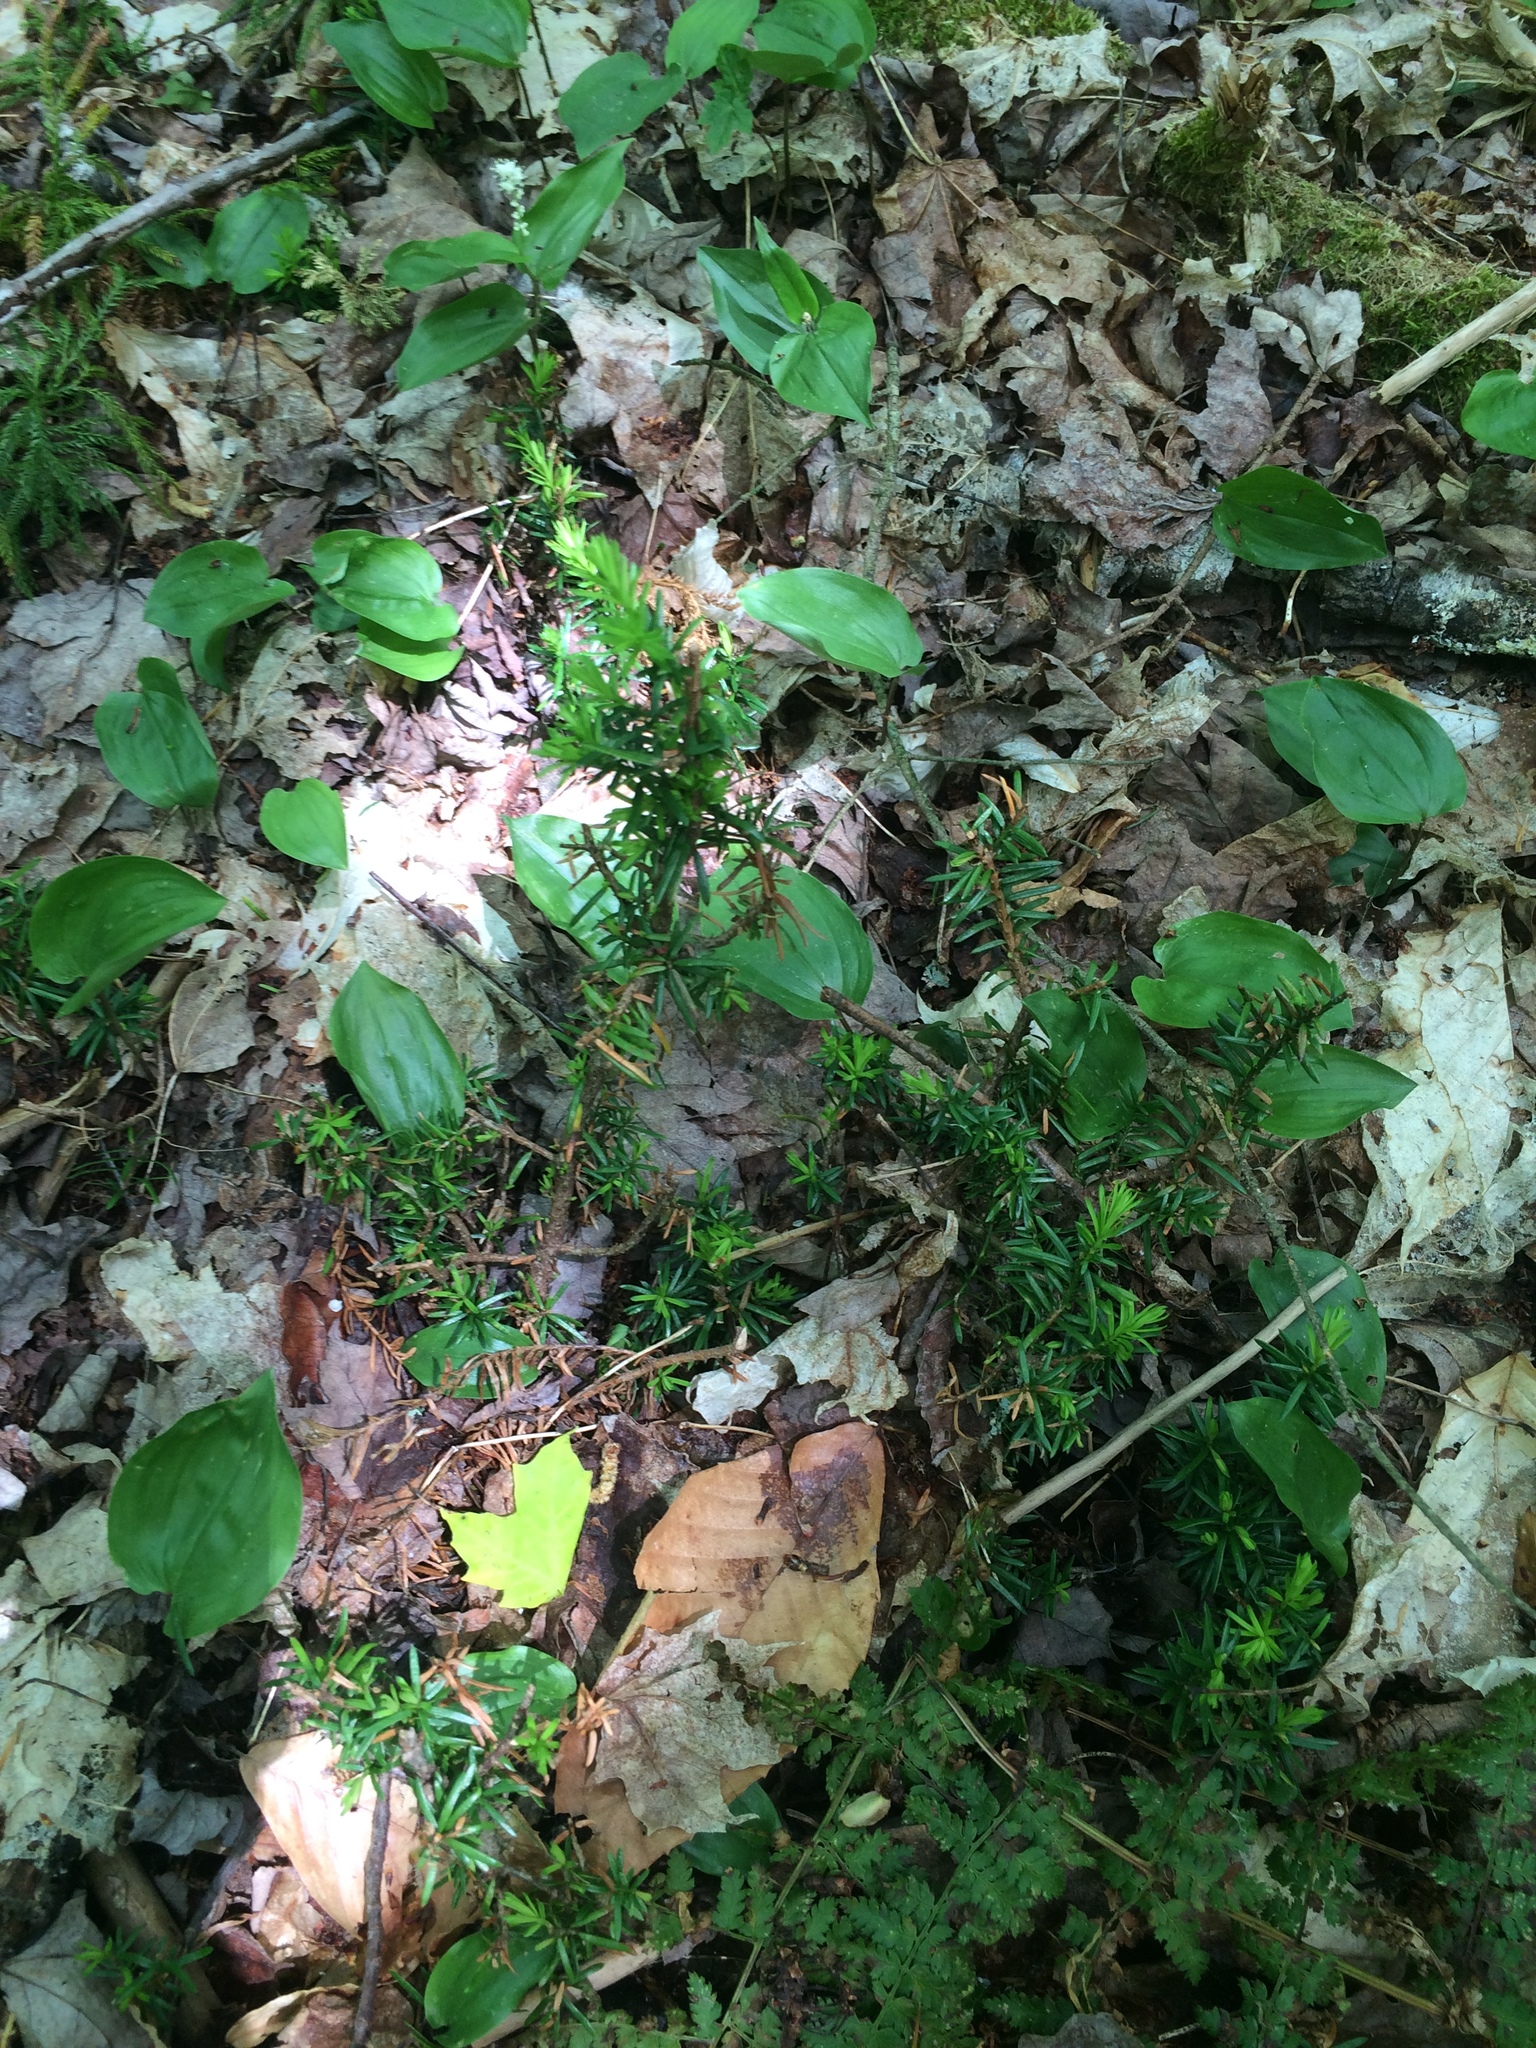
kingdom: Plantae
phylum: Tracheophyta
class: Liliopsida
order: Asparagales
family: Asparagaceae
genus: Maianthemum
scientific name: Maianthemum canadense
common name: False lily-of-the-valley
